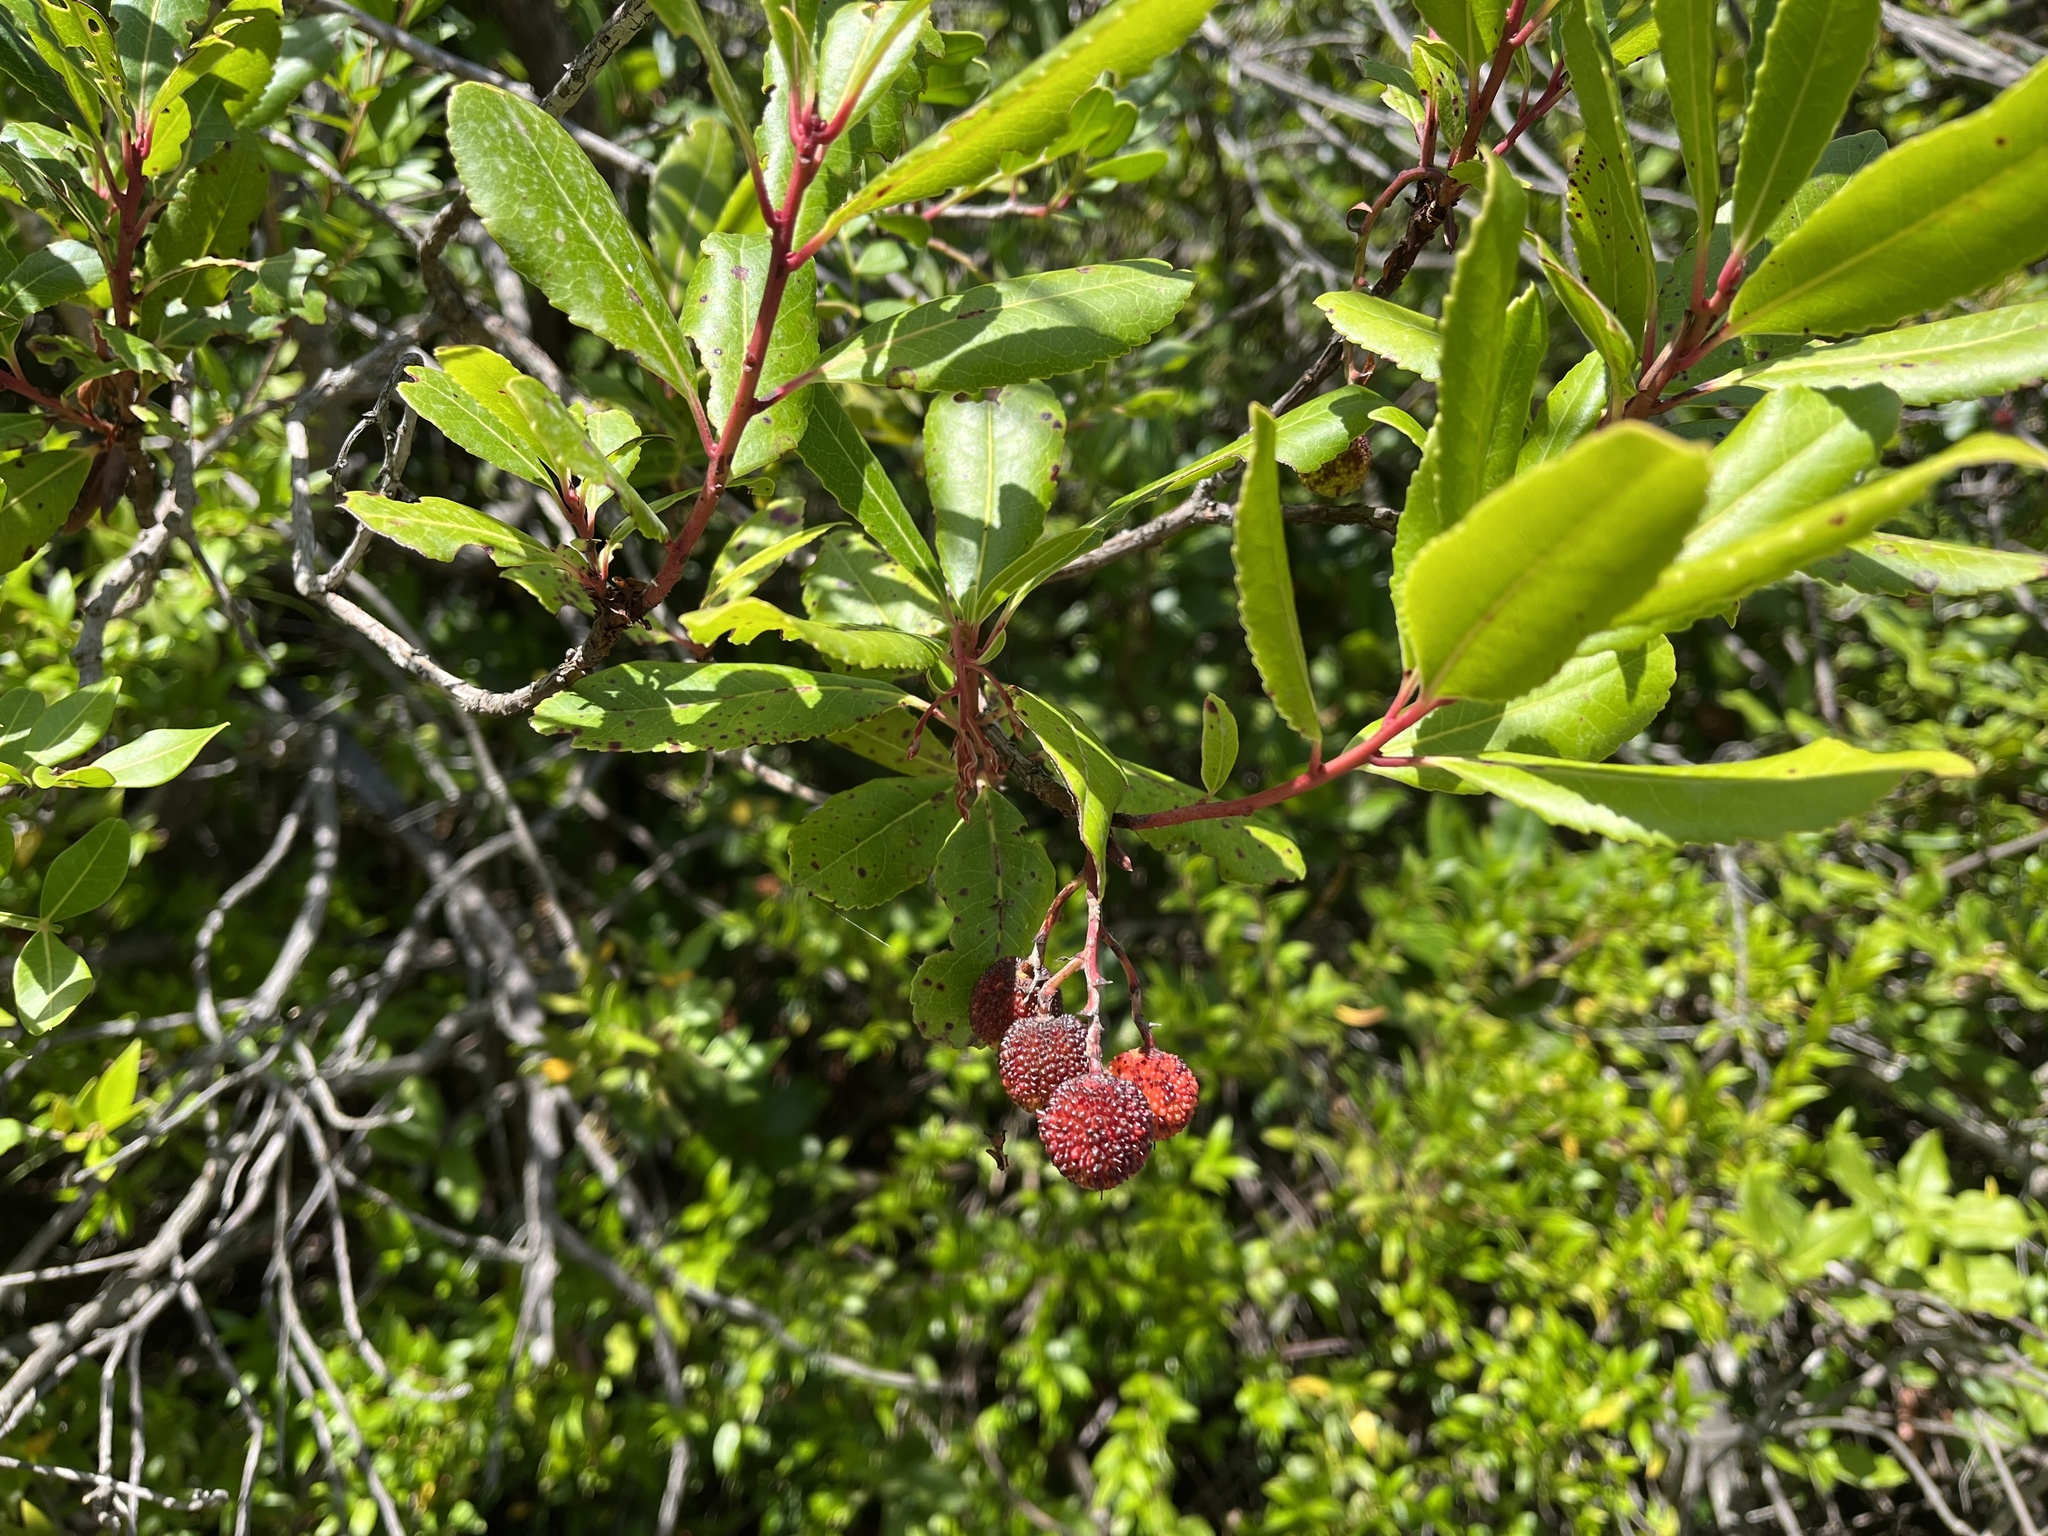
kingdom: Plantae
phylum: Tracheophyta
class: Magnoliopsida
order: Ericales
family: Ericaceae
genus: Arbutus
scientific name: Arbutus unedo
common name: Strawberry-tree
